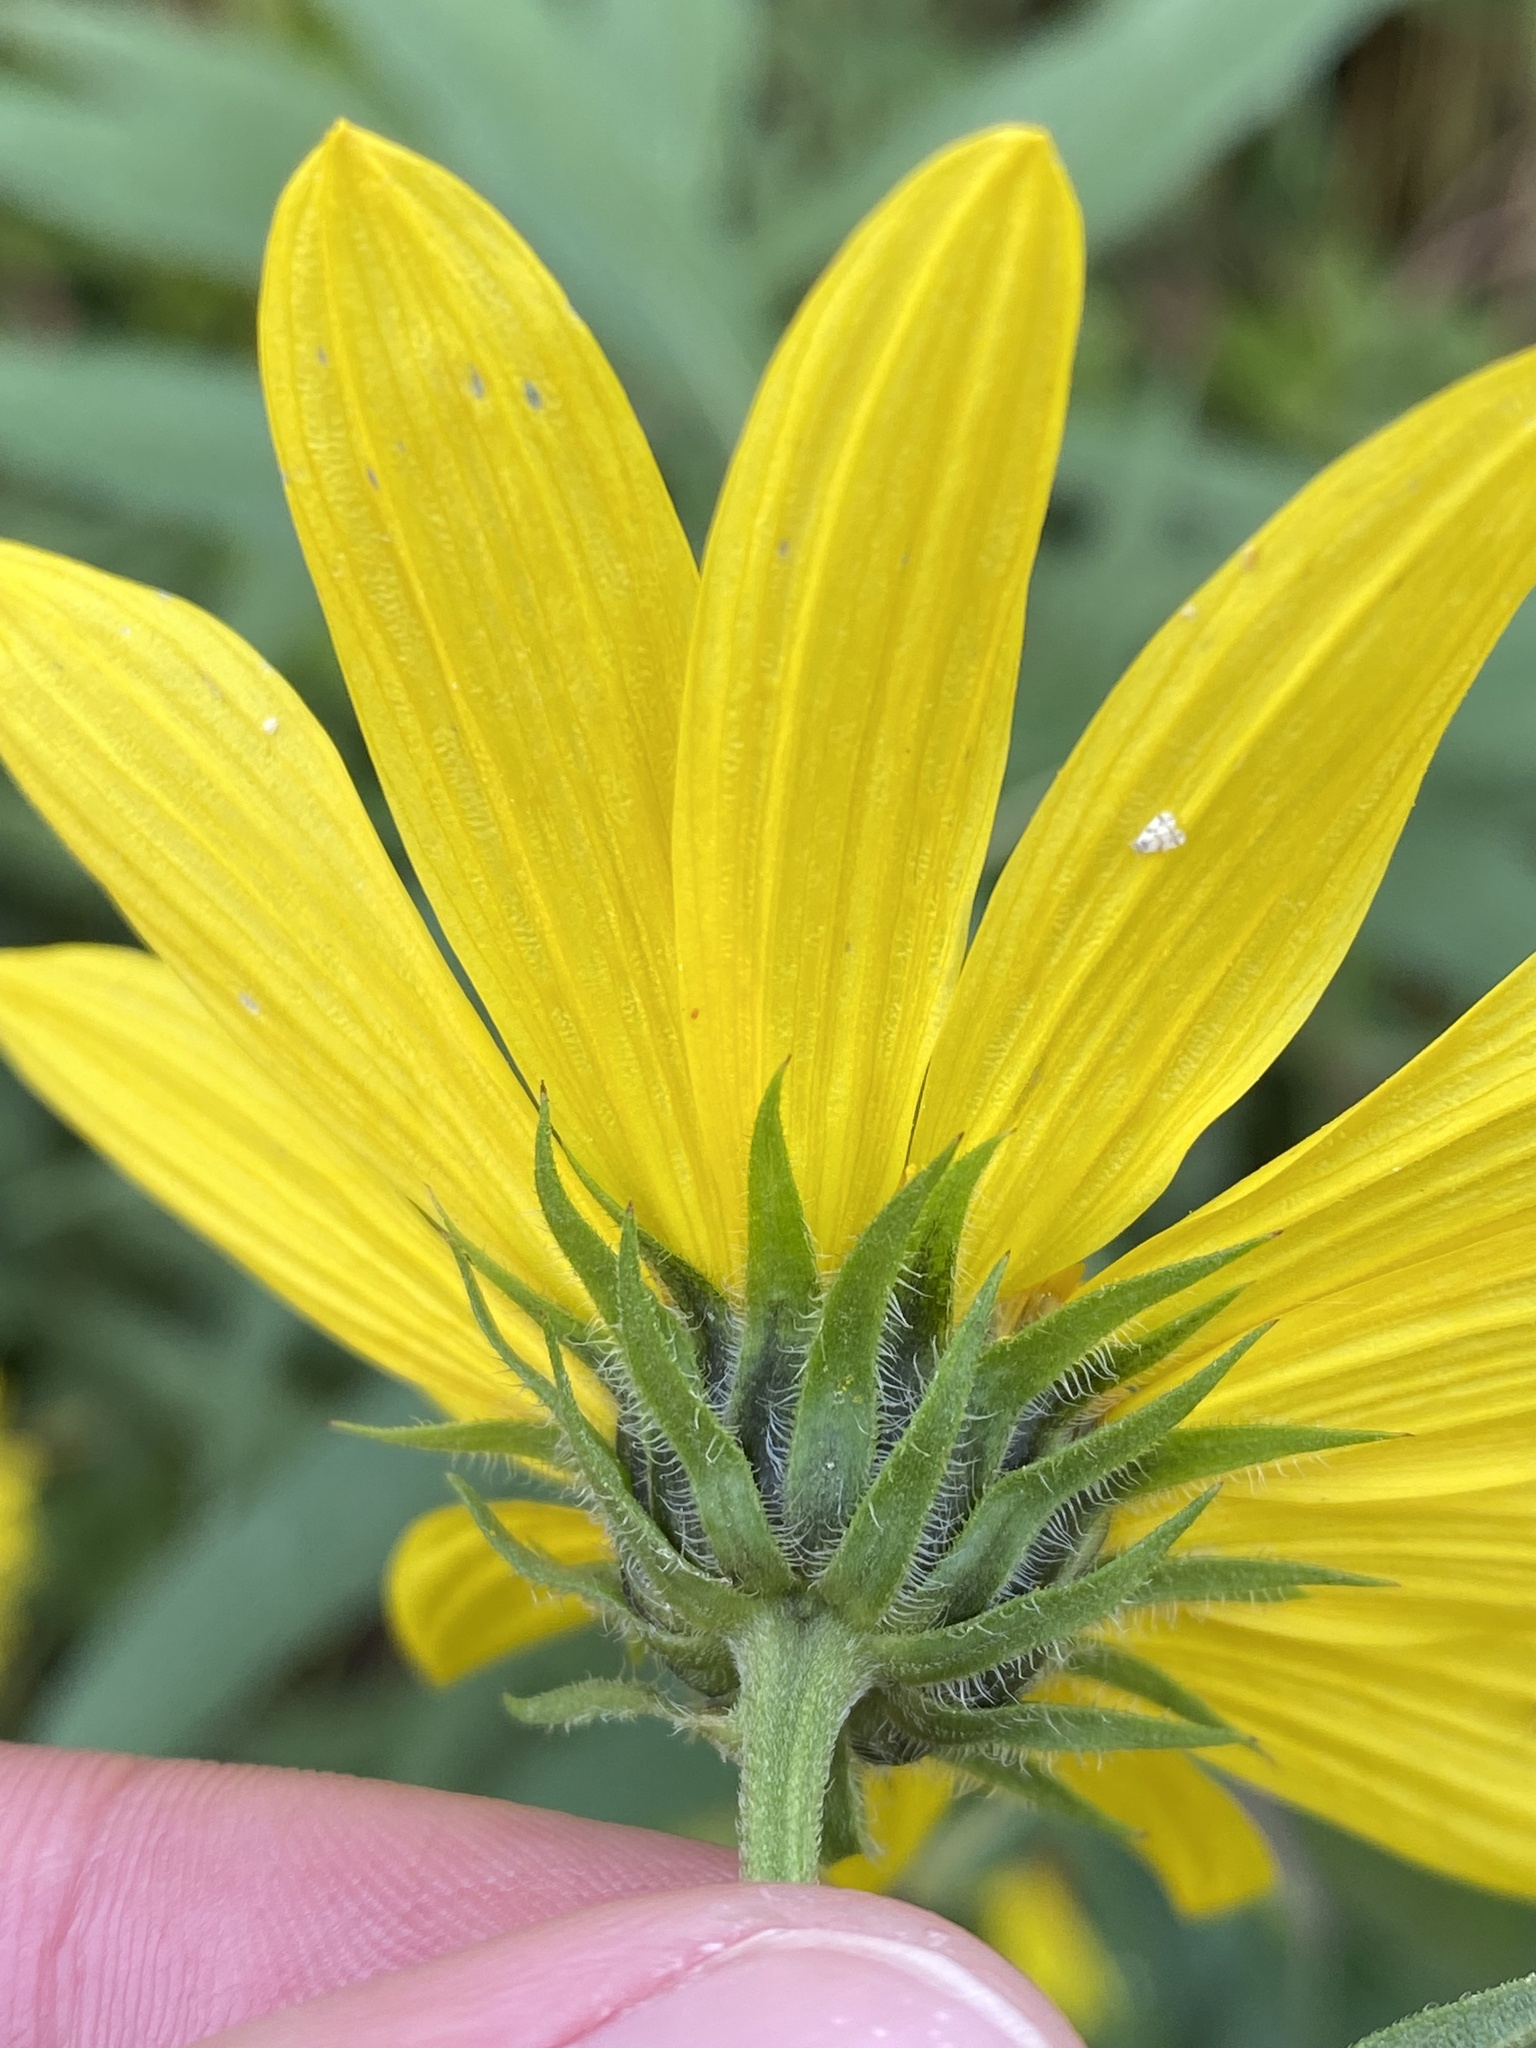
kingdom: Plantae
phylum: Tracheophyta
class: Magnoliopsida
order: Asterales
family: Asteraceae
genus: Helianthus
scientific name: Helianthus strumosus
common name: Pale-leaved sunflower
